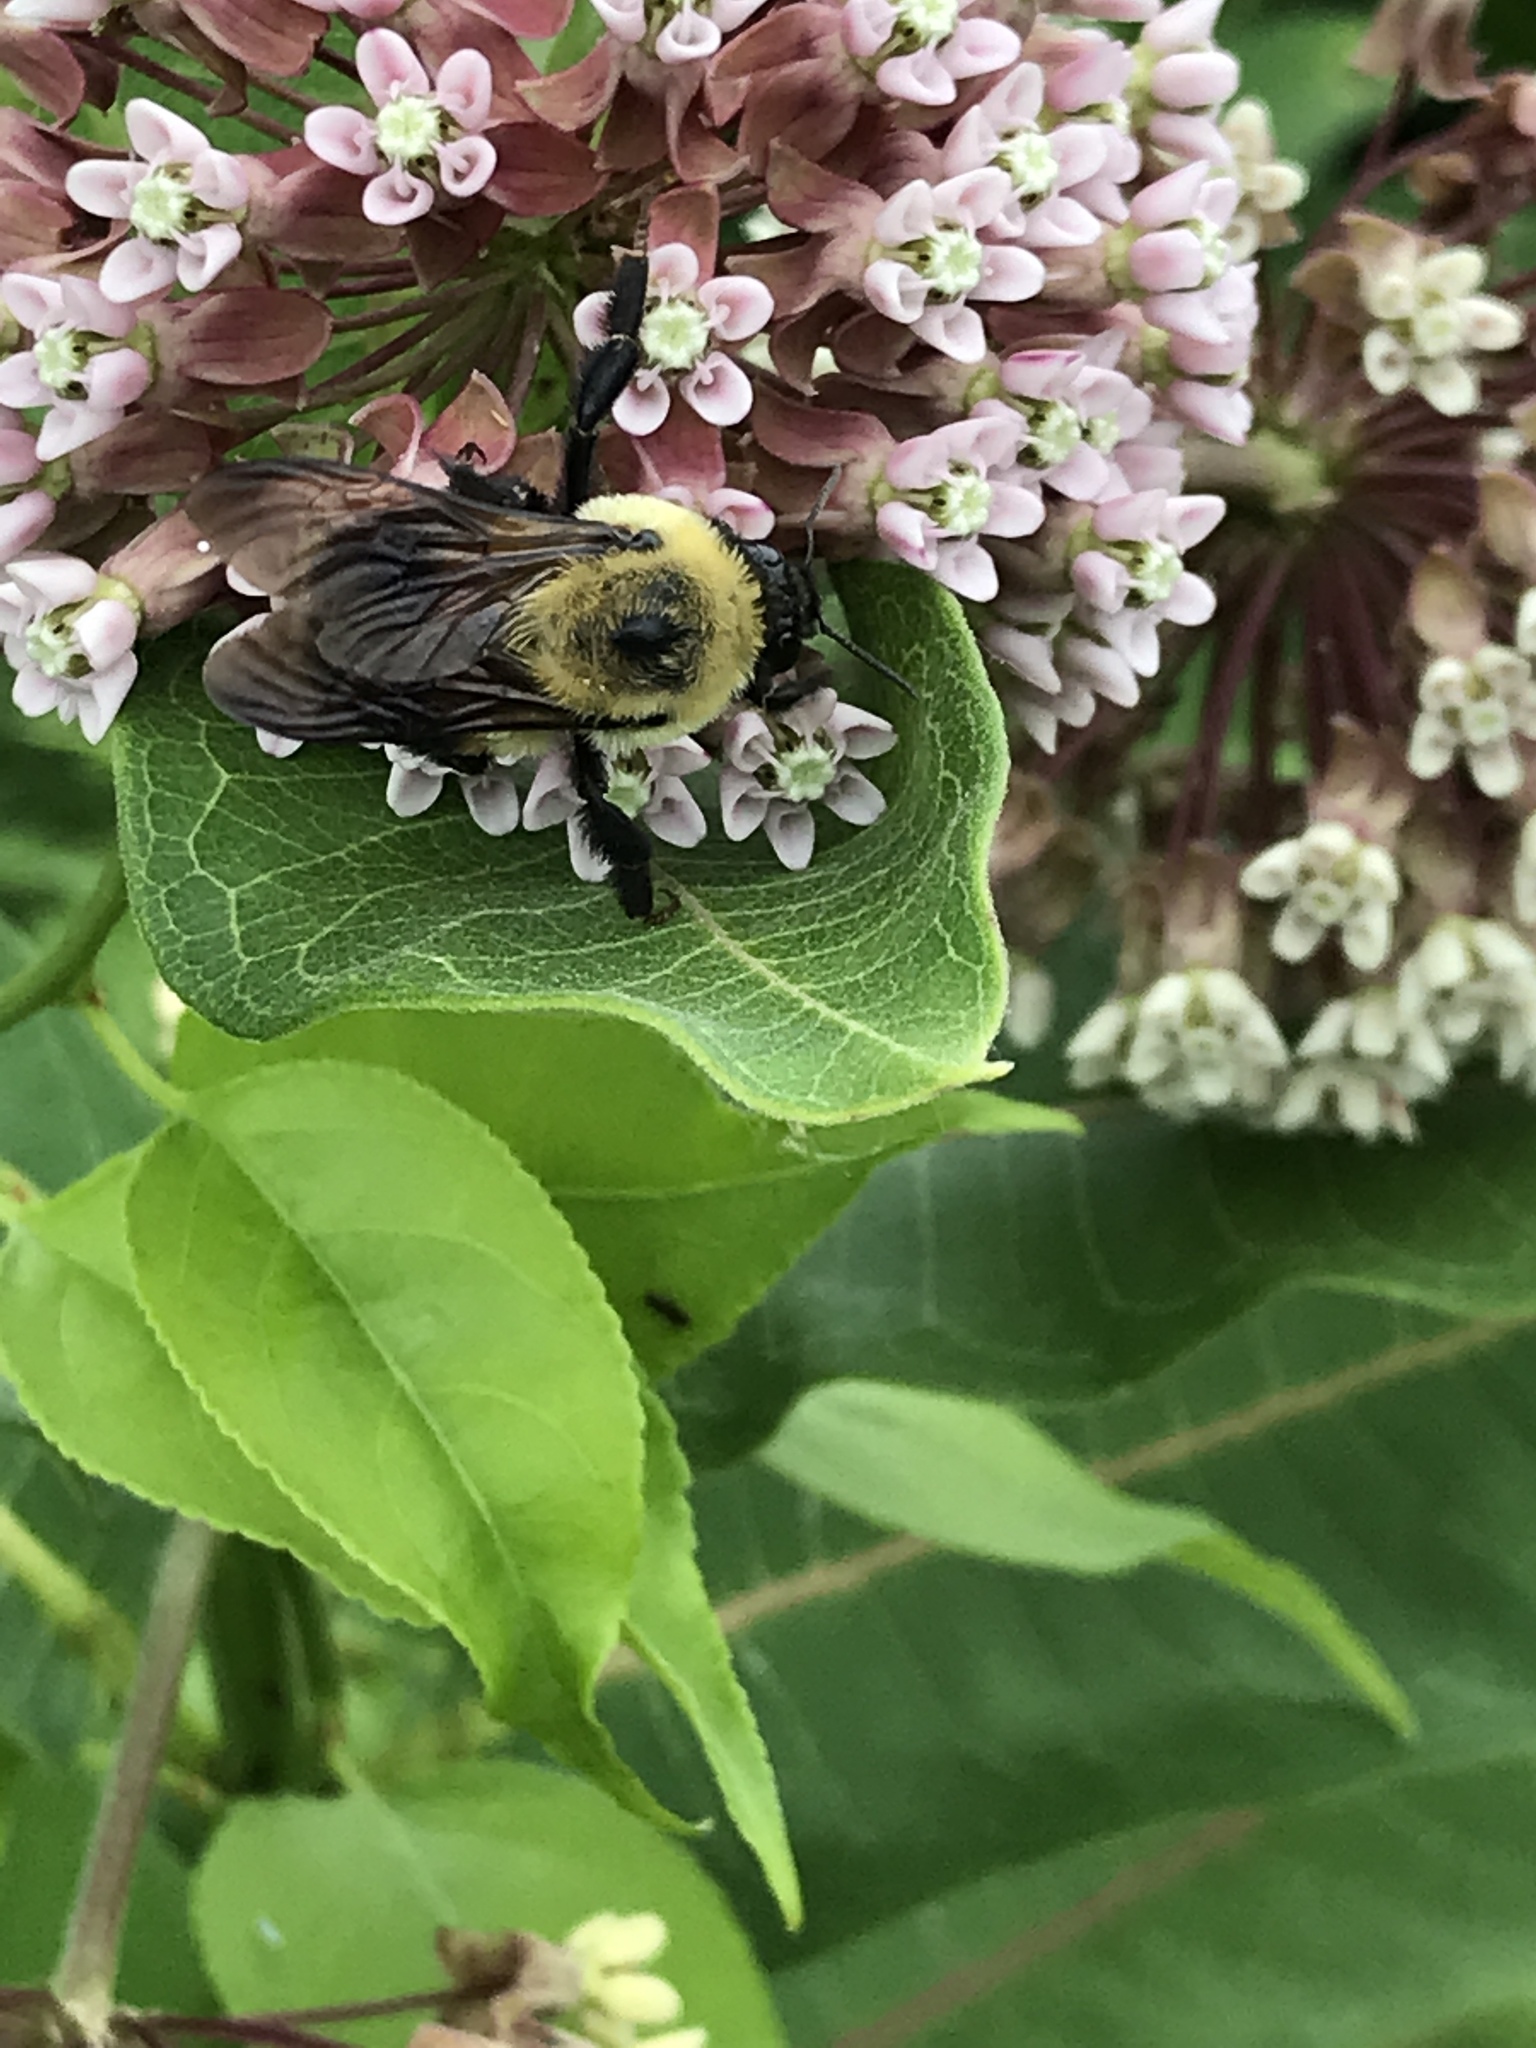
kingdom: Animalia
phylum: Arthropoda
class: Insecta
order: Hymenoptera
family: Apidae
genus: Bombus
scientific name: Bombus griseocollis
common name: Brown-belted bumble bee
